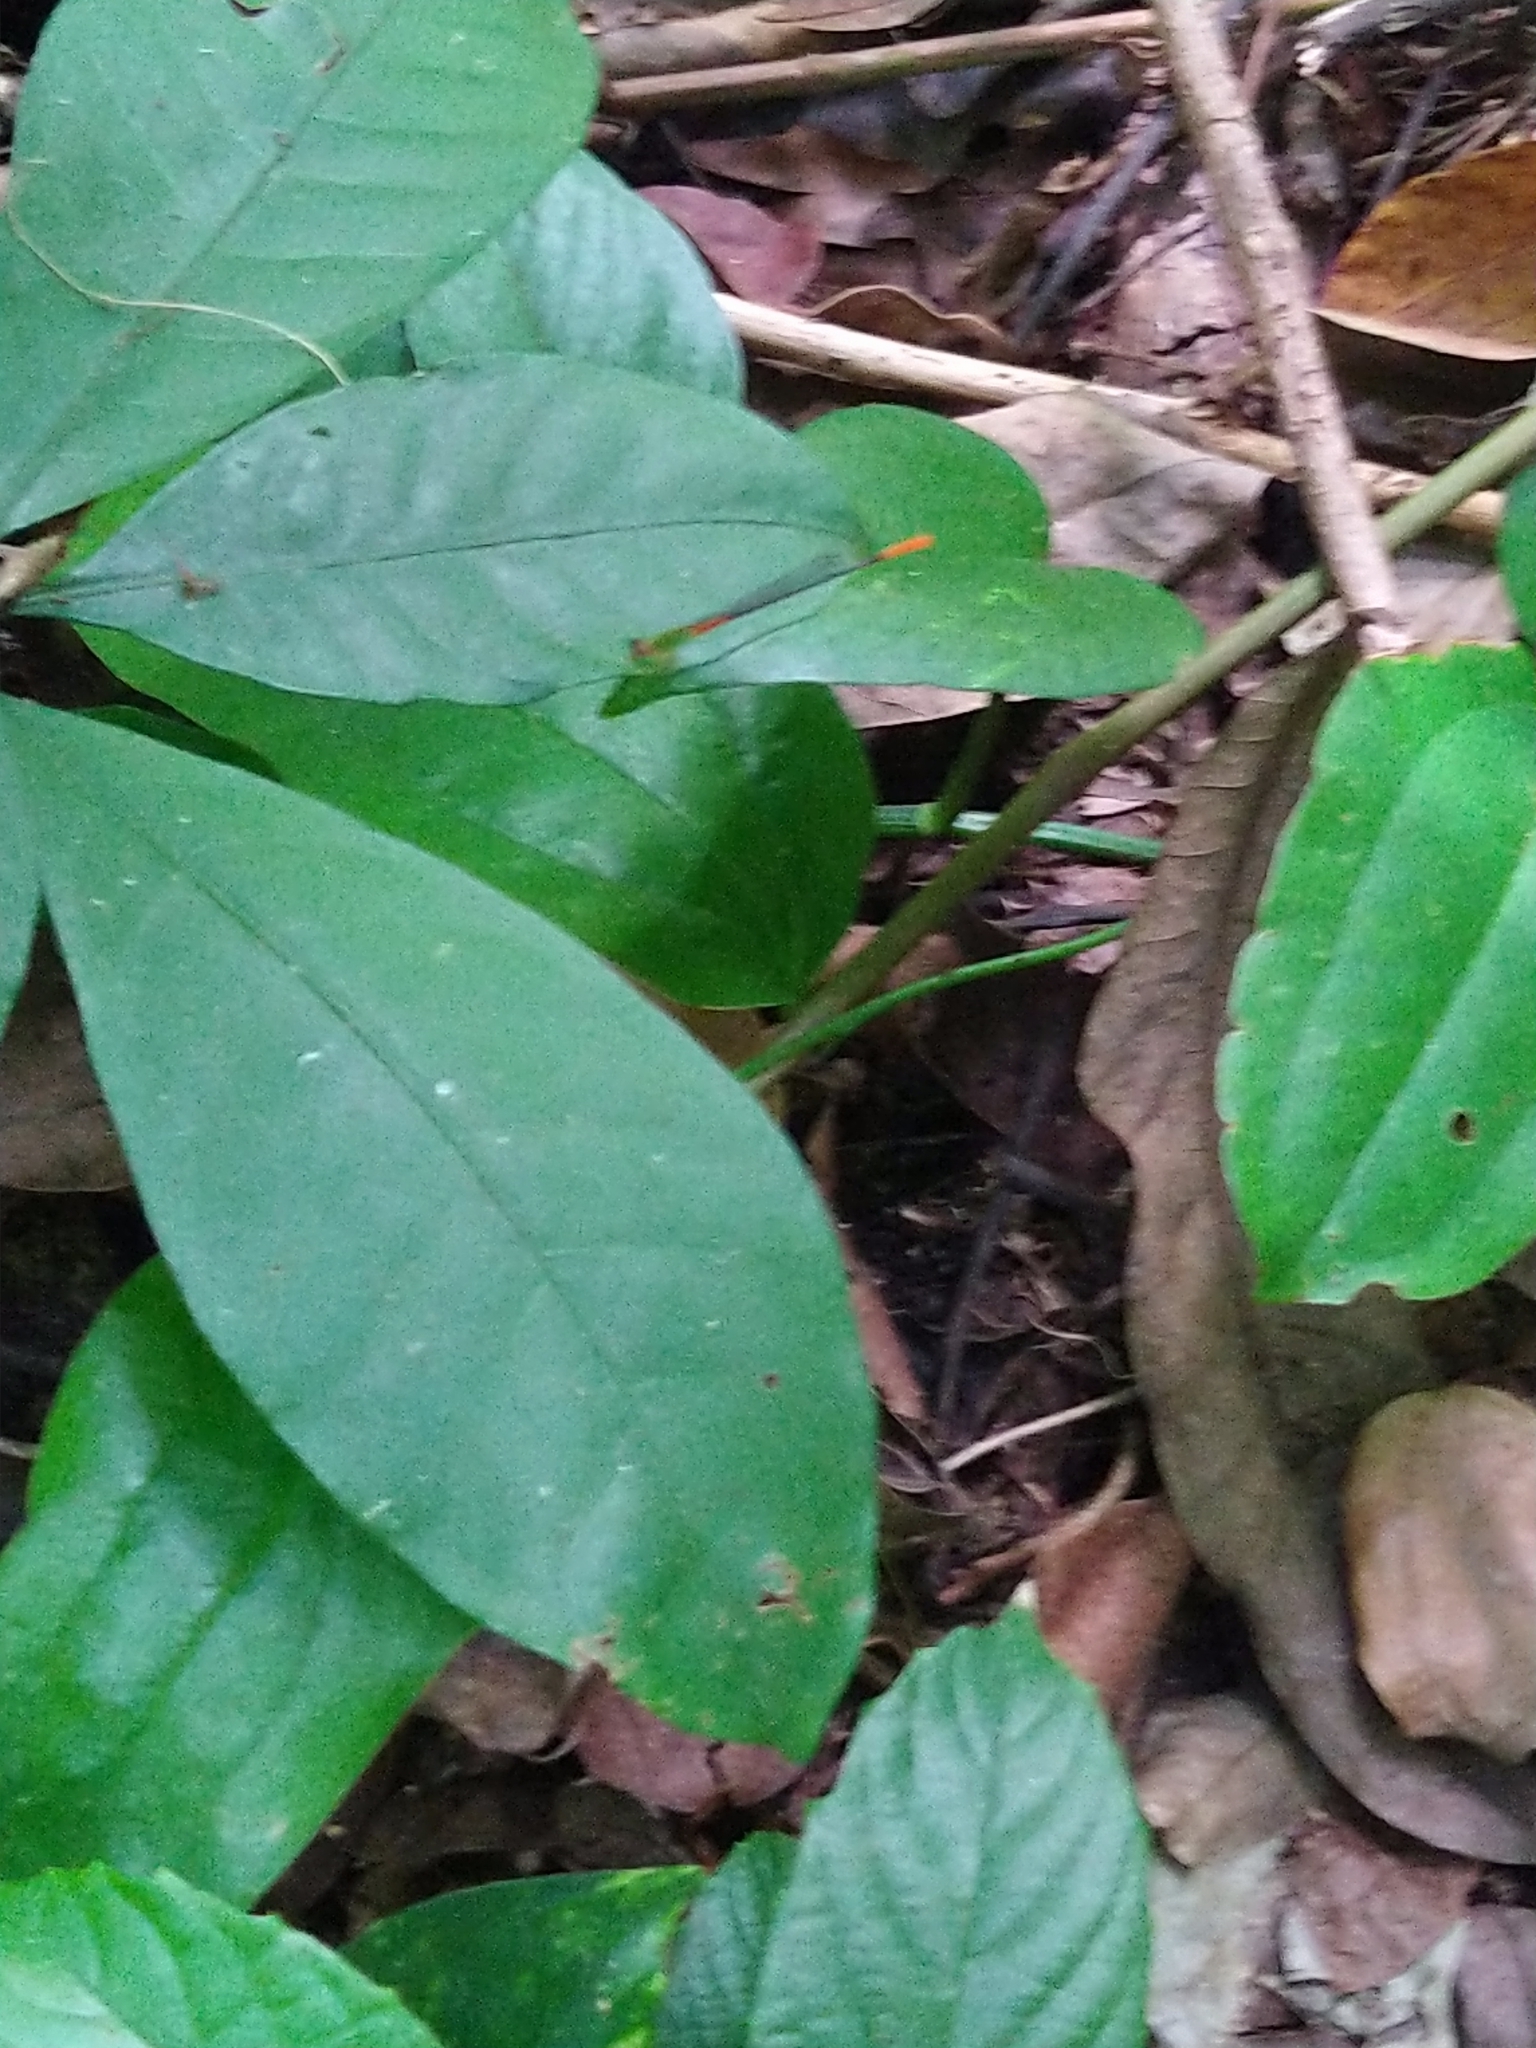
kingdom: Animalia
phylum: Arthropoda
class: Insecta
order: Odonata
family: Coenagrionidae
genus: Ceriagrion
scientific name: Ceriagrion cerinorubellum
